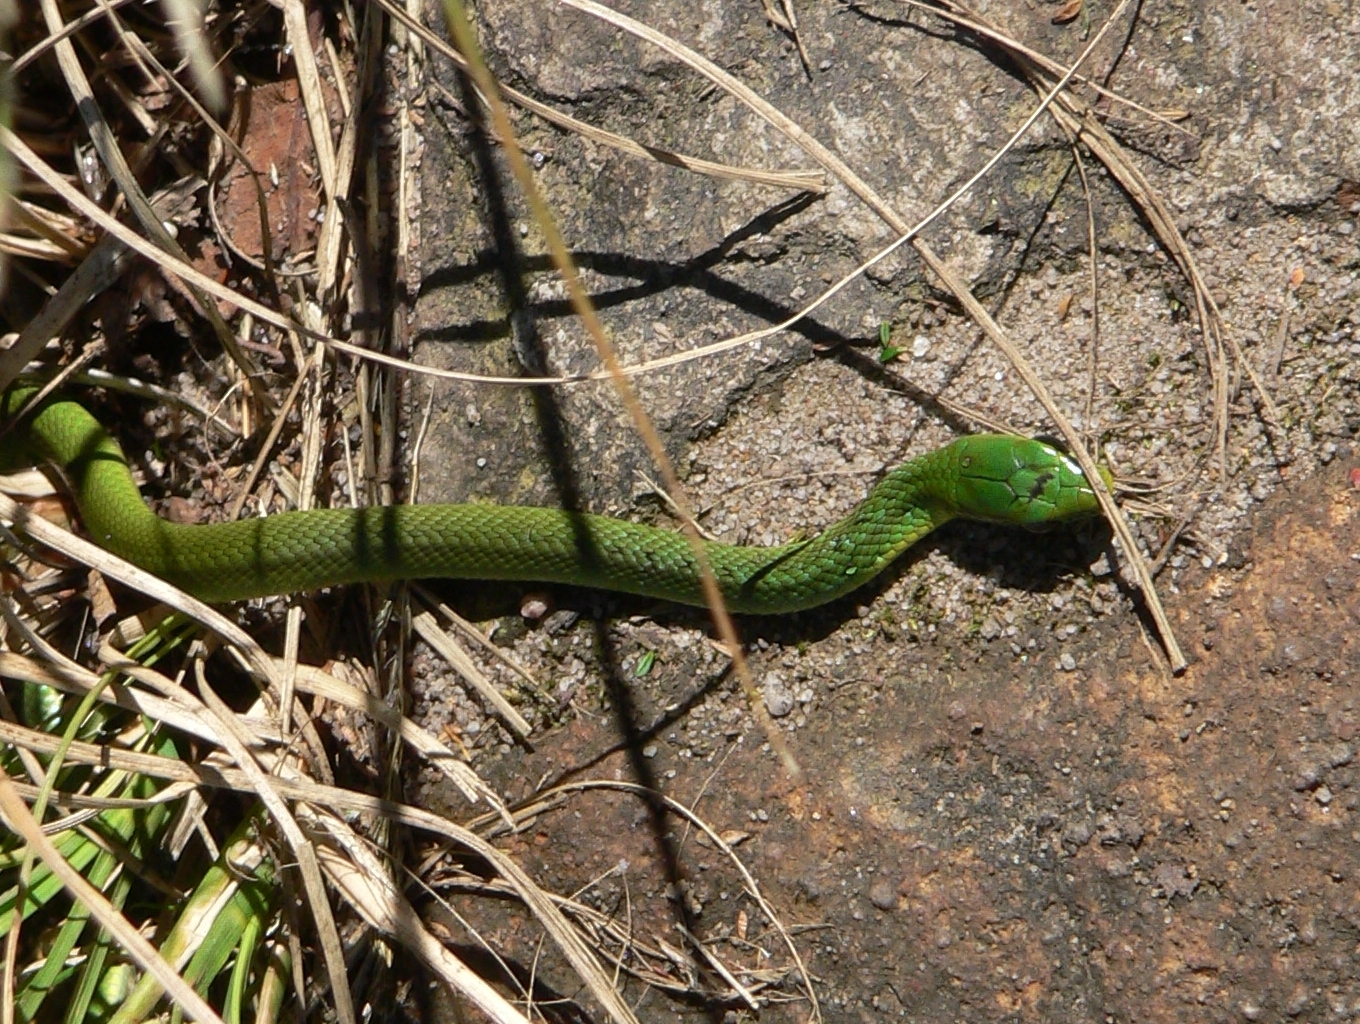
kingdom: Animalia
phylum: Chordata
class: Squamata
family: Colubridae
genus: Philothamnus
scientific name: Philothamnus occidentalis
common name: Western natal green snake
